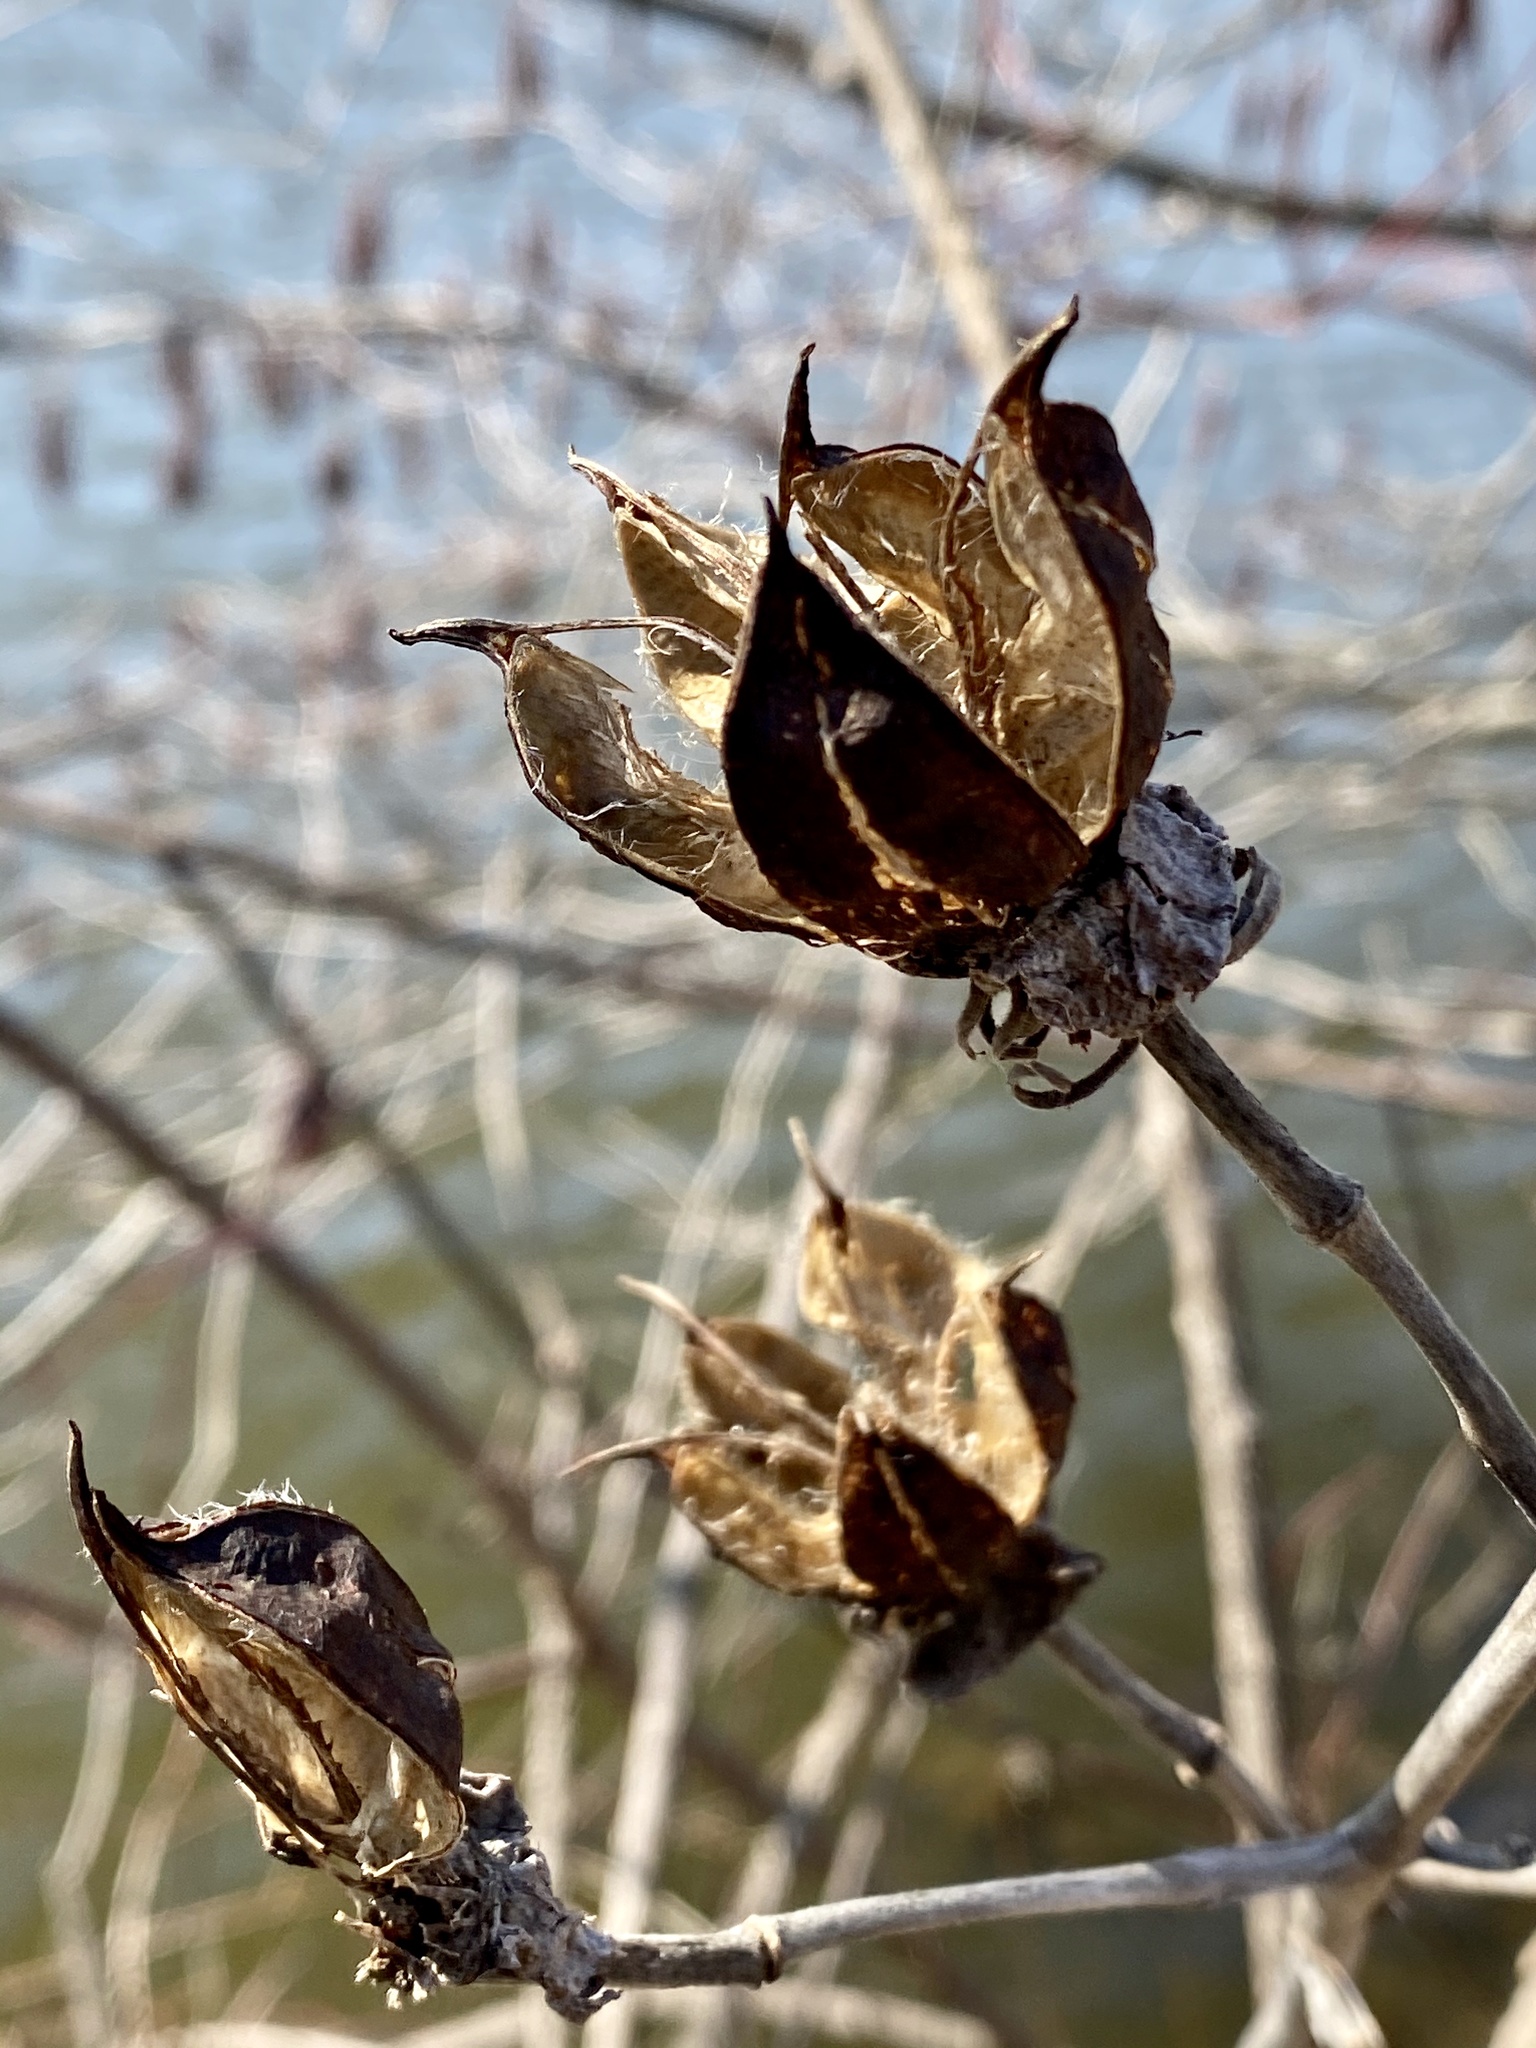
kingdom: Plantae
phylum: Tracheophyta
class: Magnoliopsida
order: Malvales
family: Malvaceae
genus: Hibiscus
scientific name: Hibiscus moscheutos
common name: Common rose-mallow
